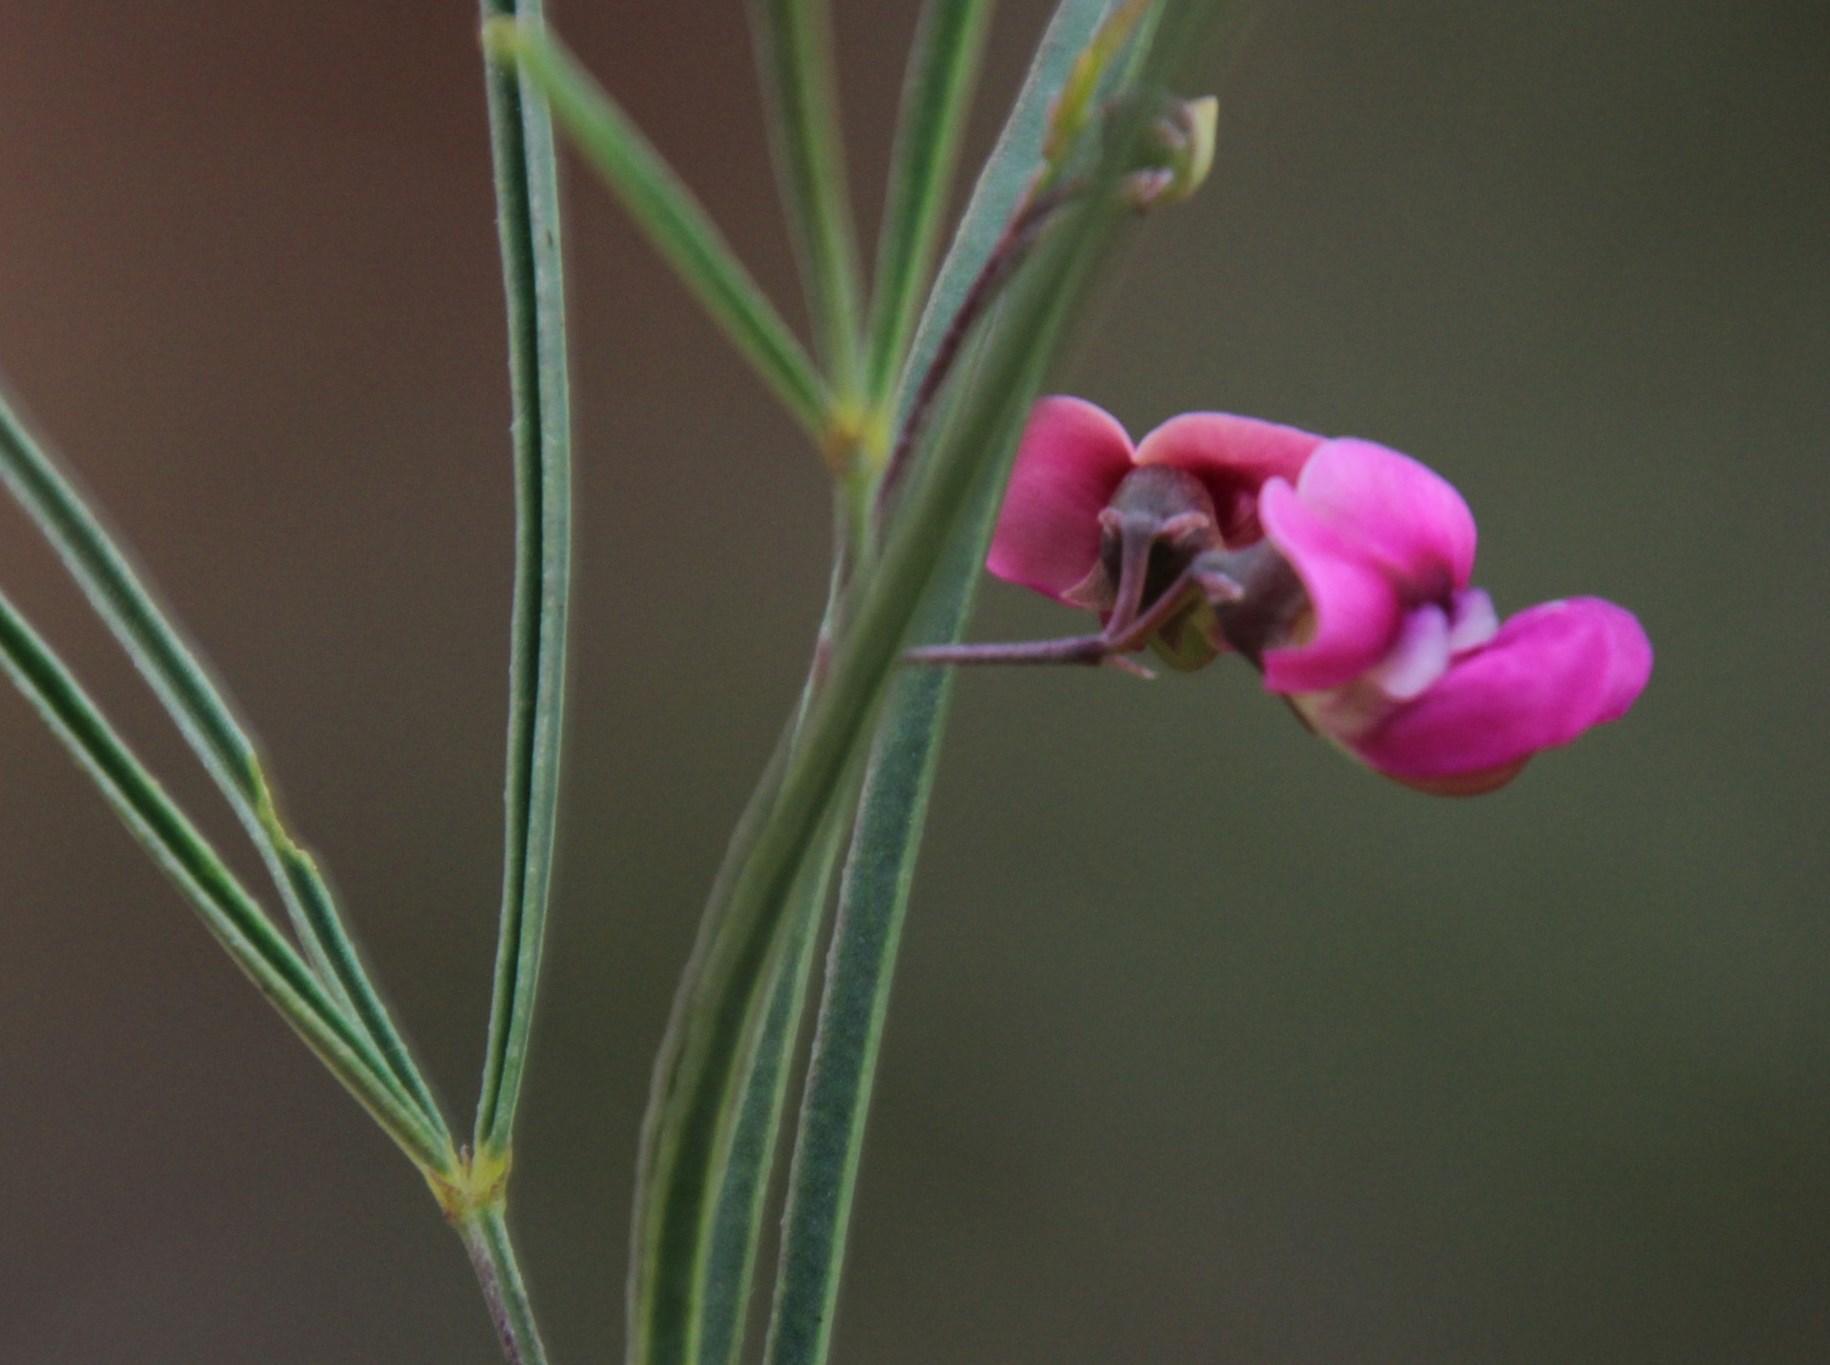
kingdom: Plantae
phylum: Tracheophyta
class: Magnoliopsida
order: Fabales
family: Fabaceae
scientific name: Fabaceae
